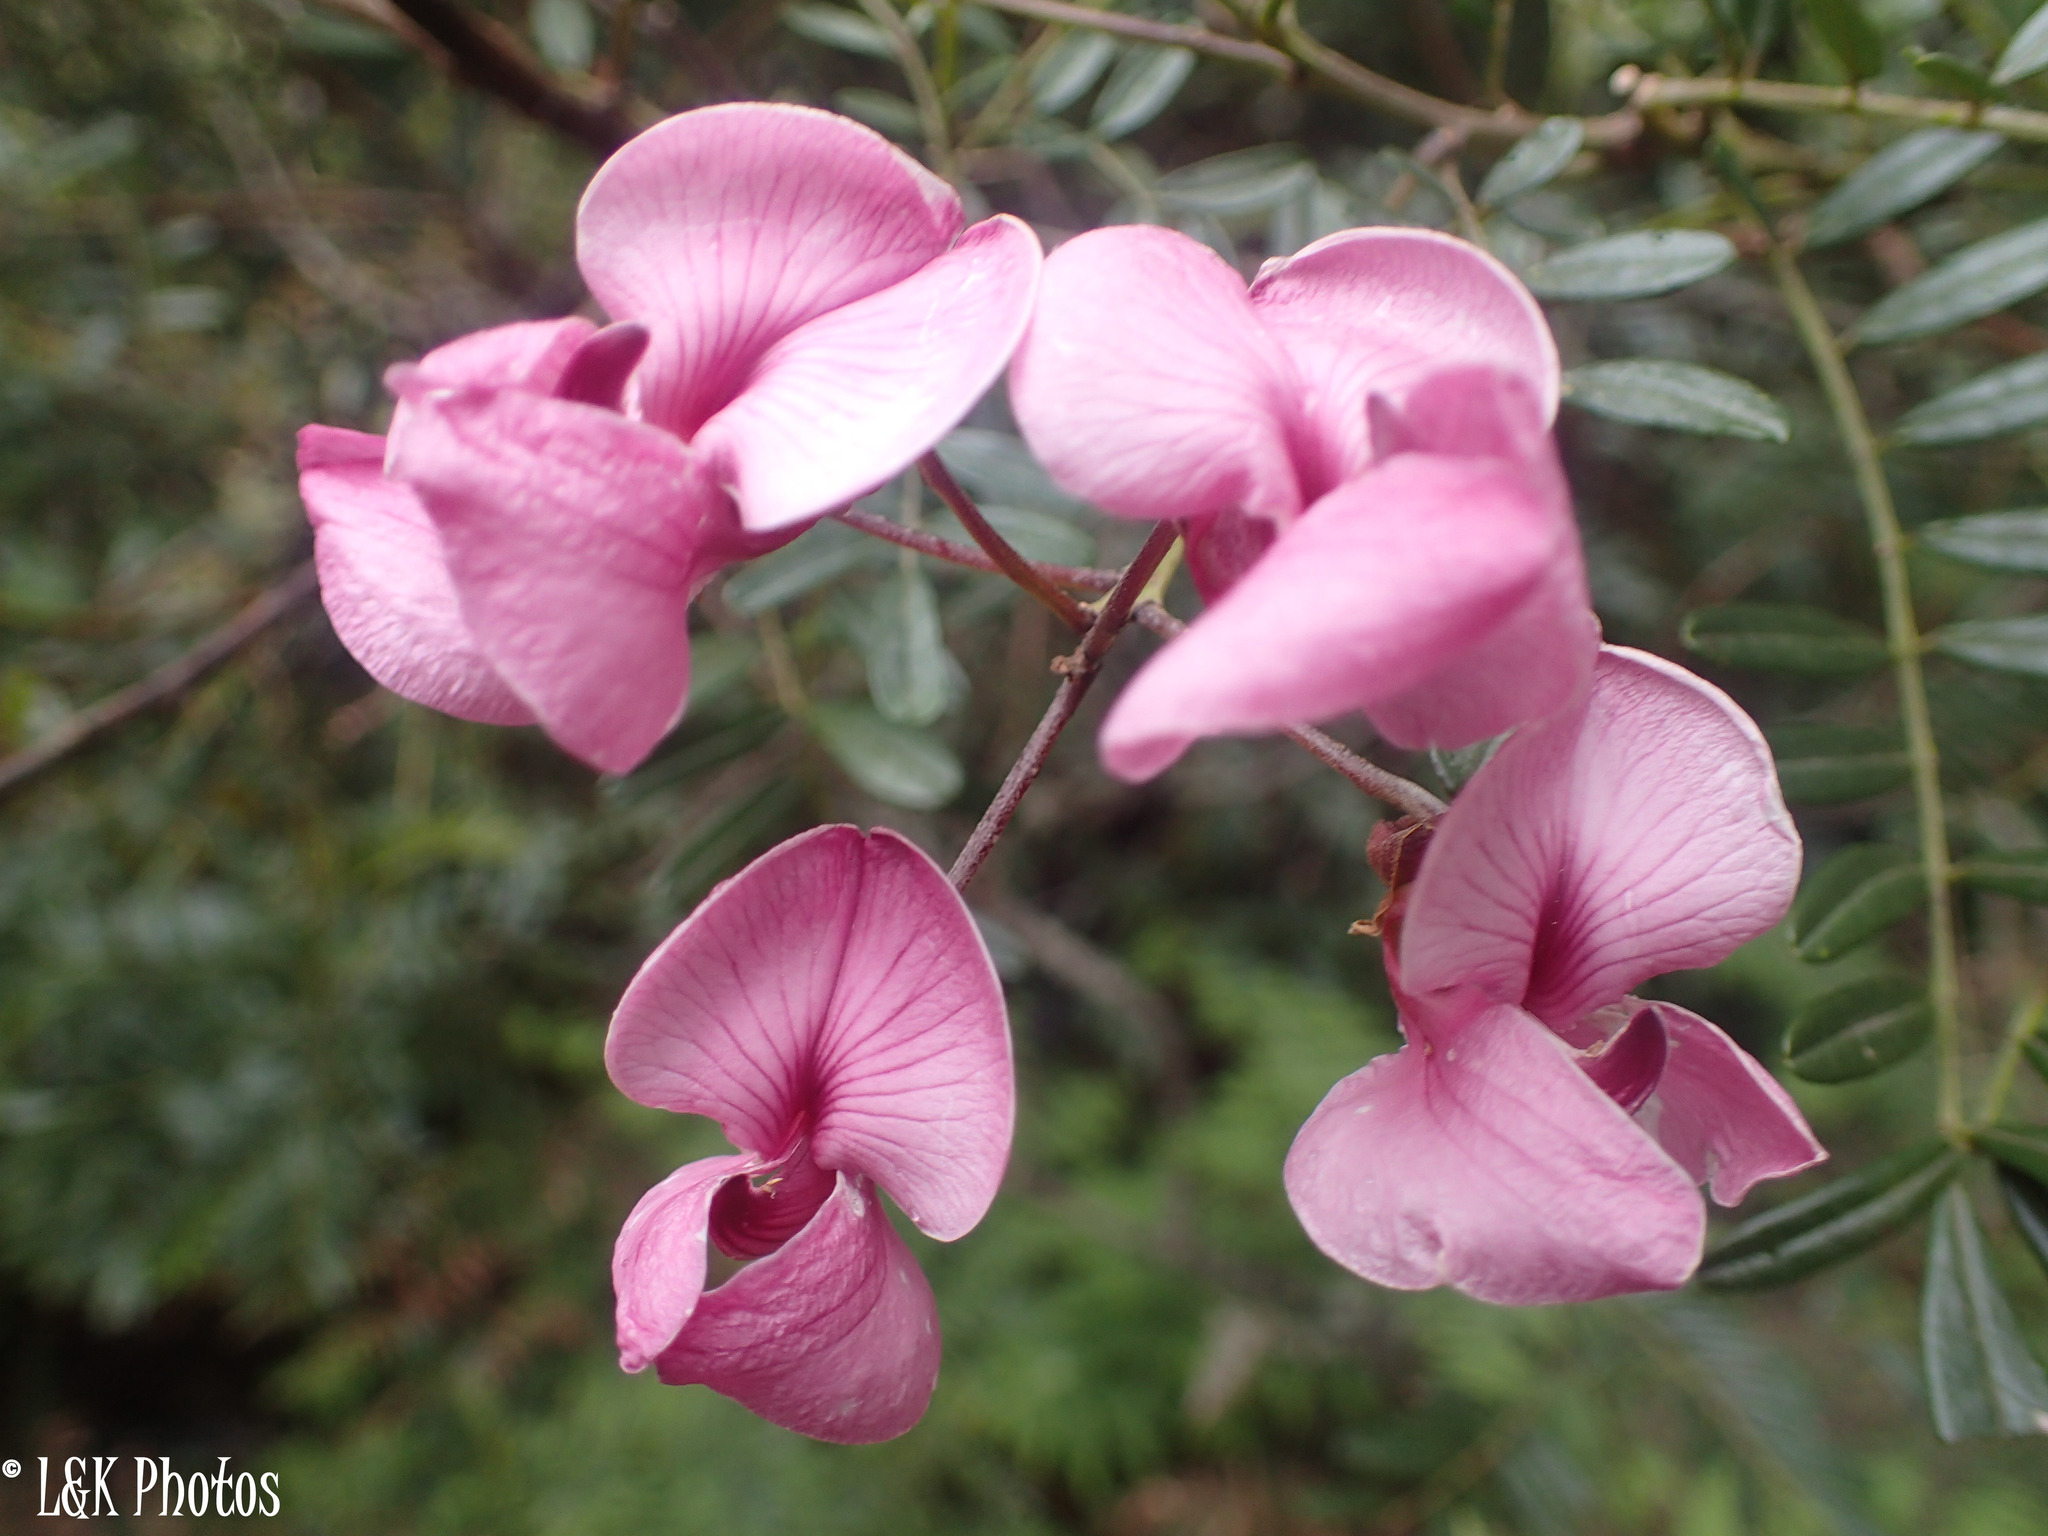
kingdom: Plantae
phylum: Tracheophyta
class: Magnoliopsida
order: Fabales
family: Fabaceae
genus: Virgilia
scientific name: Virgilia oroboides
